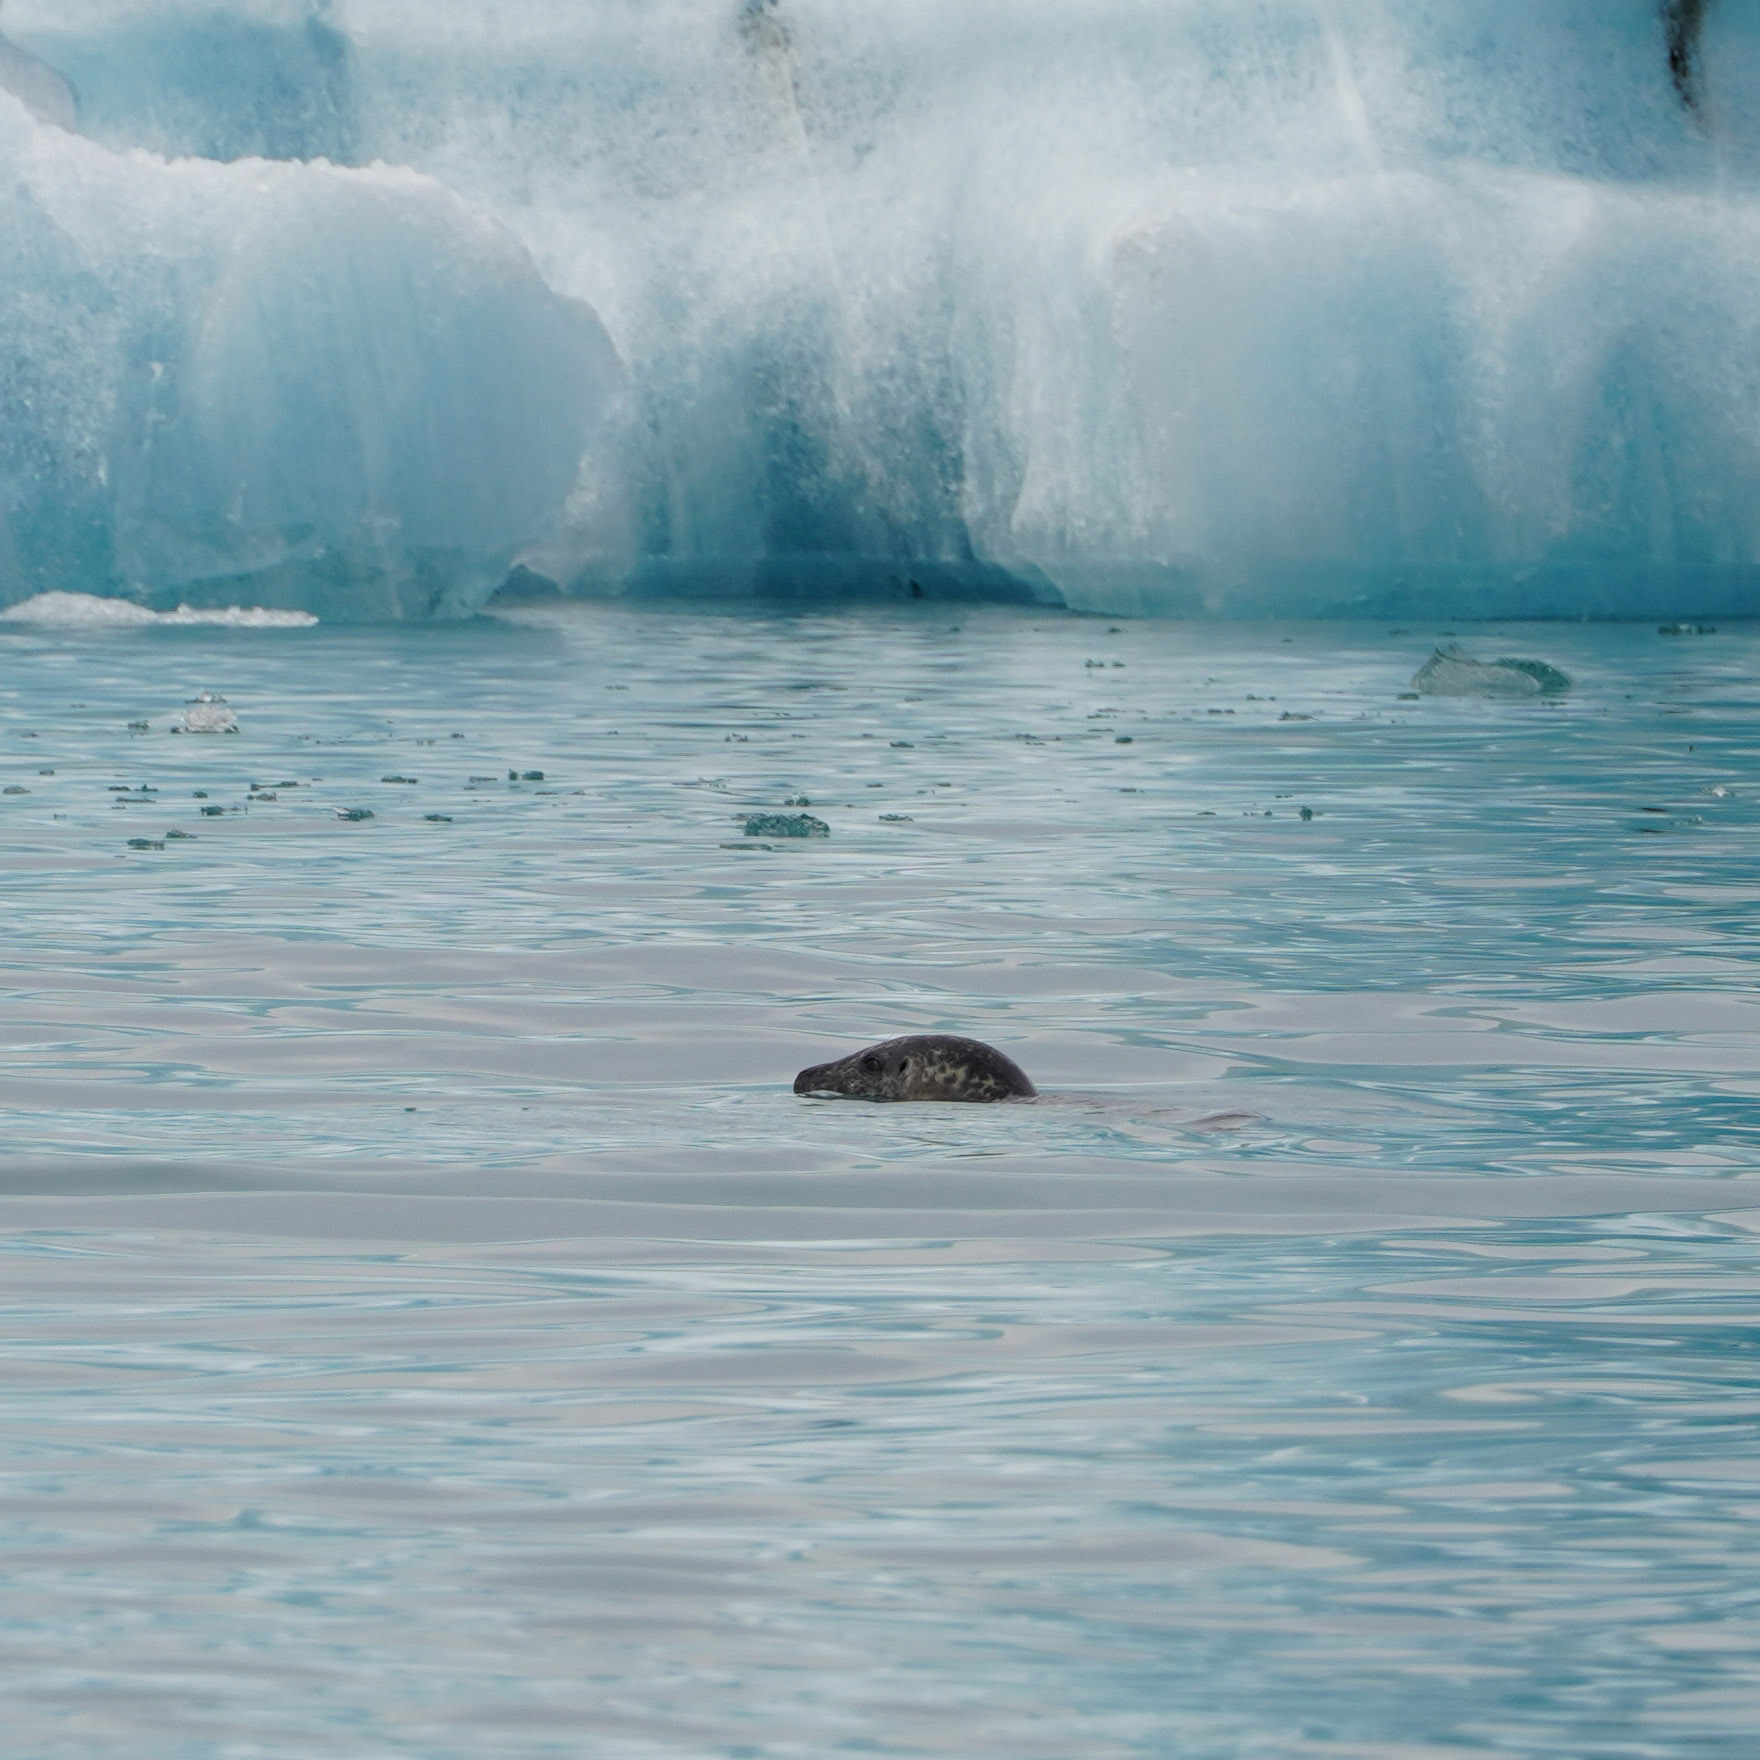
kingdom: Animalia
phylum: Chordata
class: Mammalia
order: Carnivora
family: Phocidae
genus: Phoca
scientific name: Phoca vitulina
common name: Harbor seal
